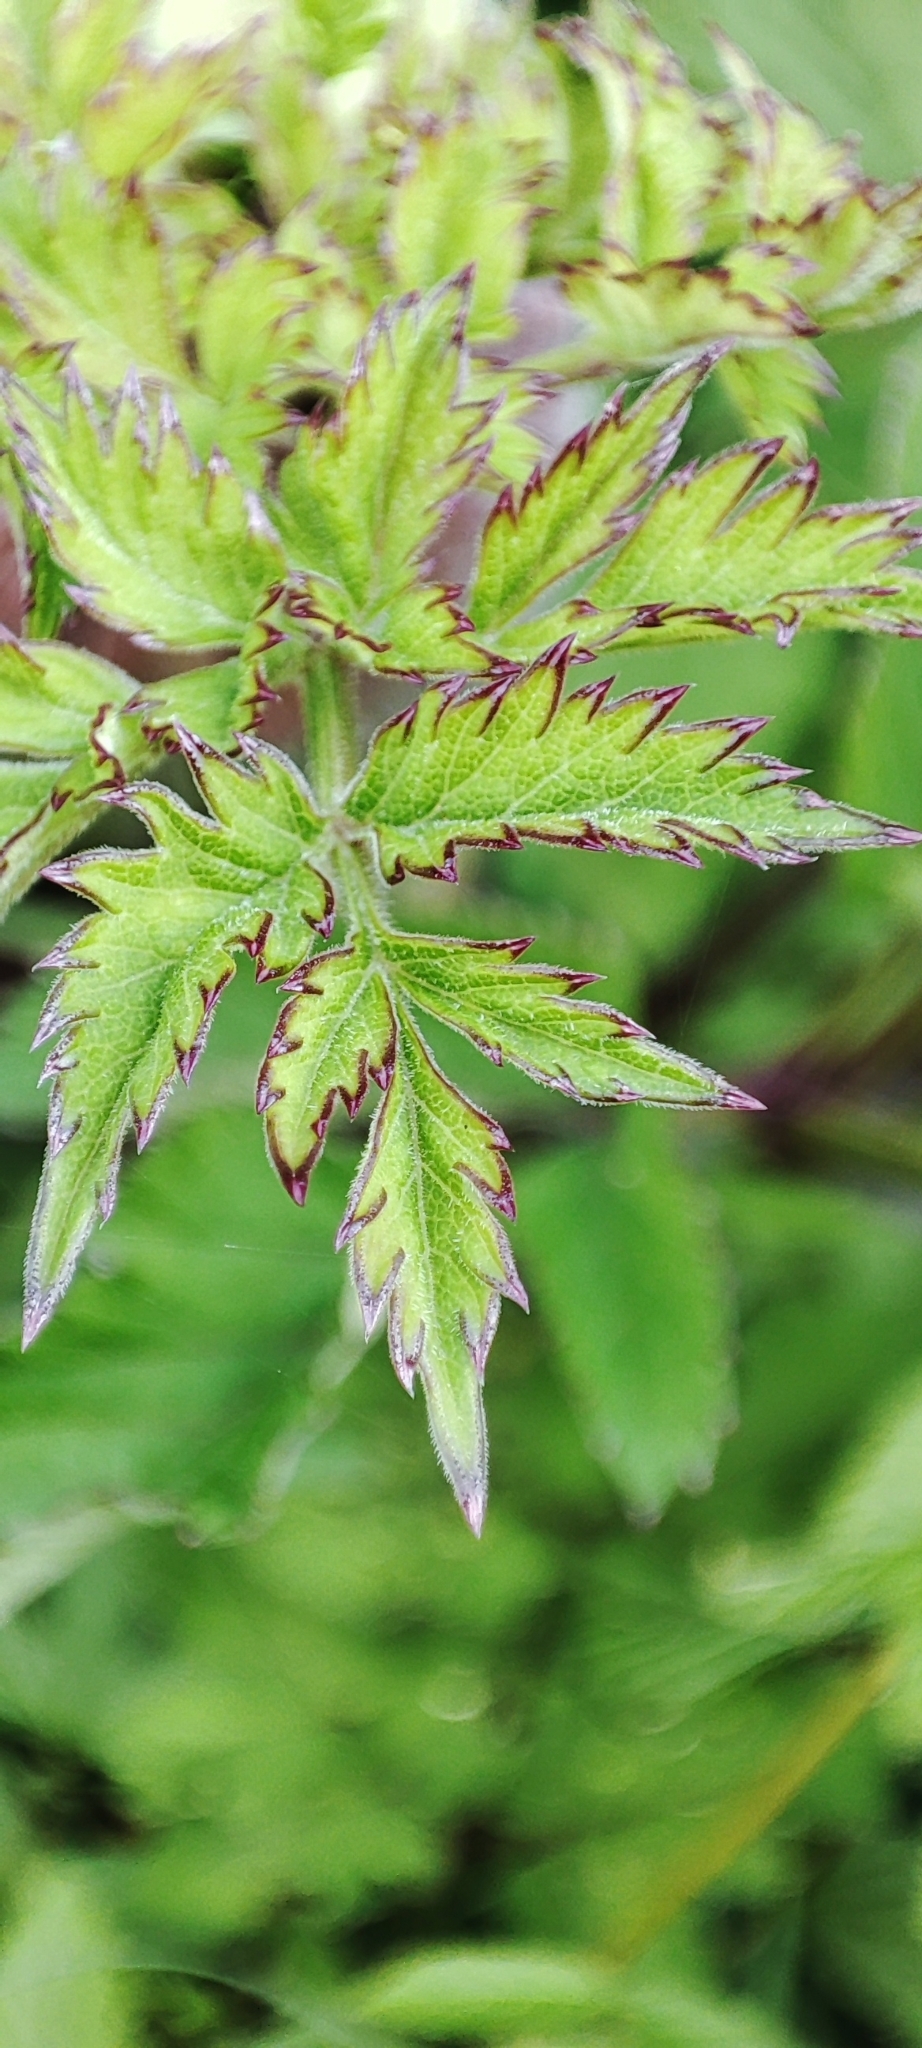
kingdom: Plantae
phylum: Tracheophyta
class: Magnoliopsida
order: Apiales
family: Apiaceae
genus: Angelica
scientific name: Angelica sylvestris
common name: Wild angelica
